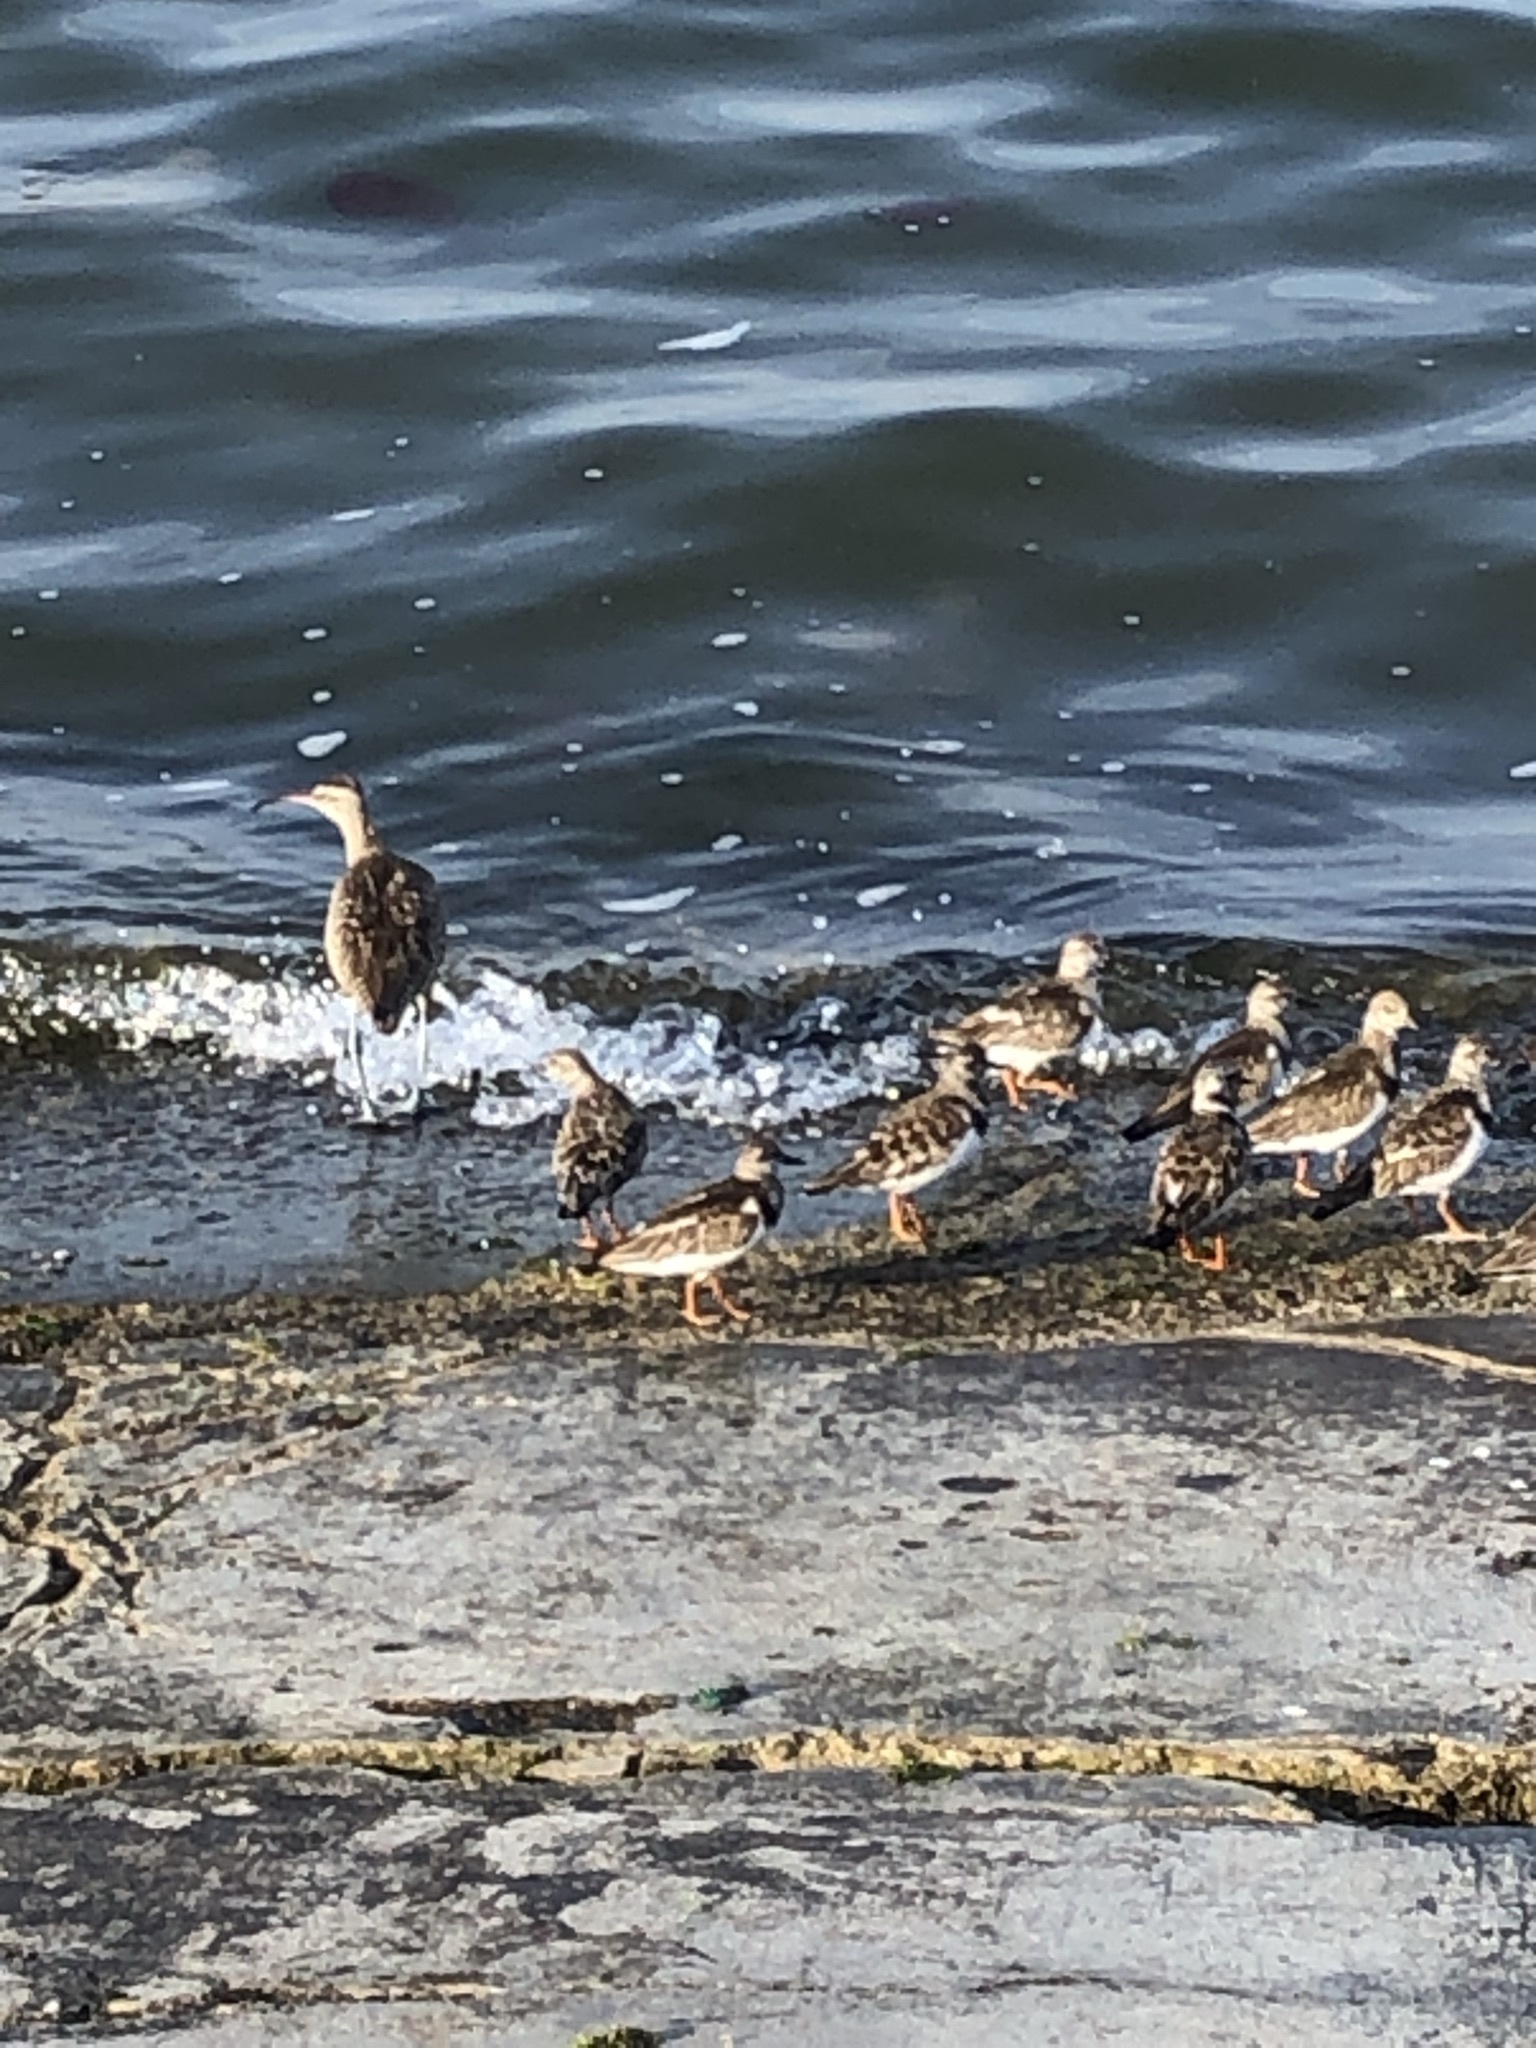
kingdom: Animalia
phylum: Chordata
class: Aves
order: Charadriiformes
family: Scolopacidae
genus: Arenaria
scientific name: Arenaria interpres
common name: Ruddy turnstone
